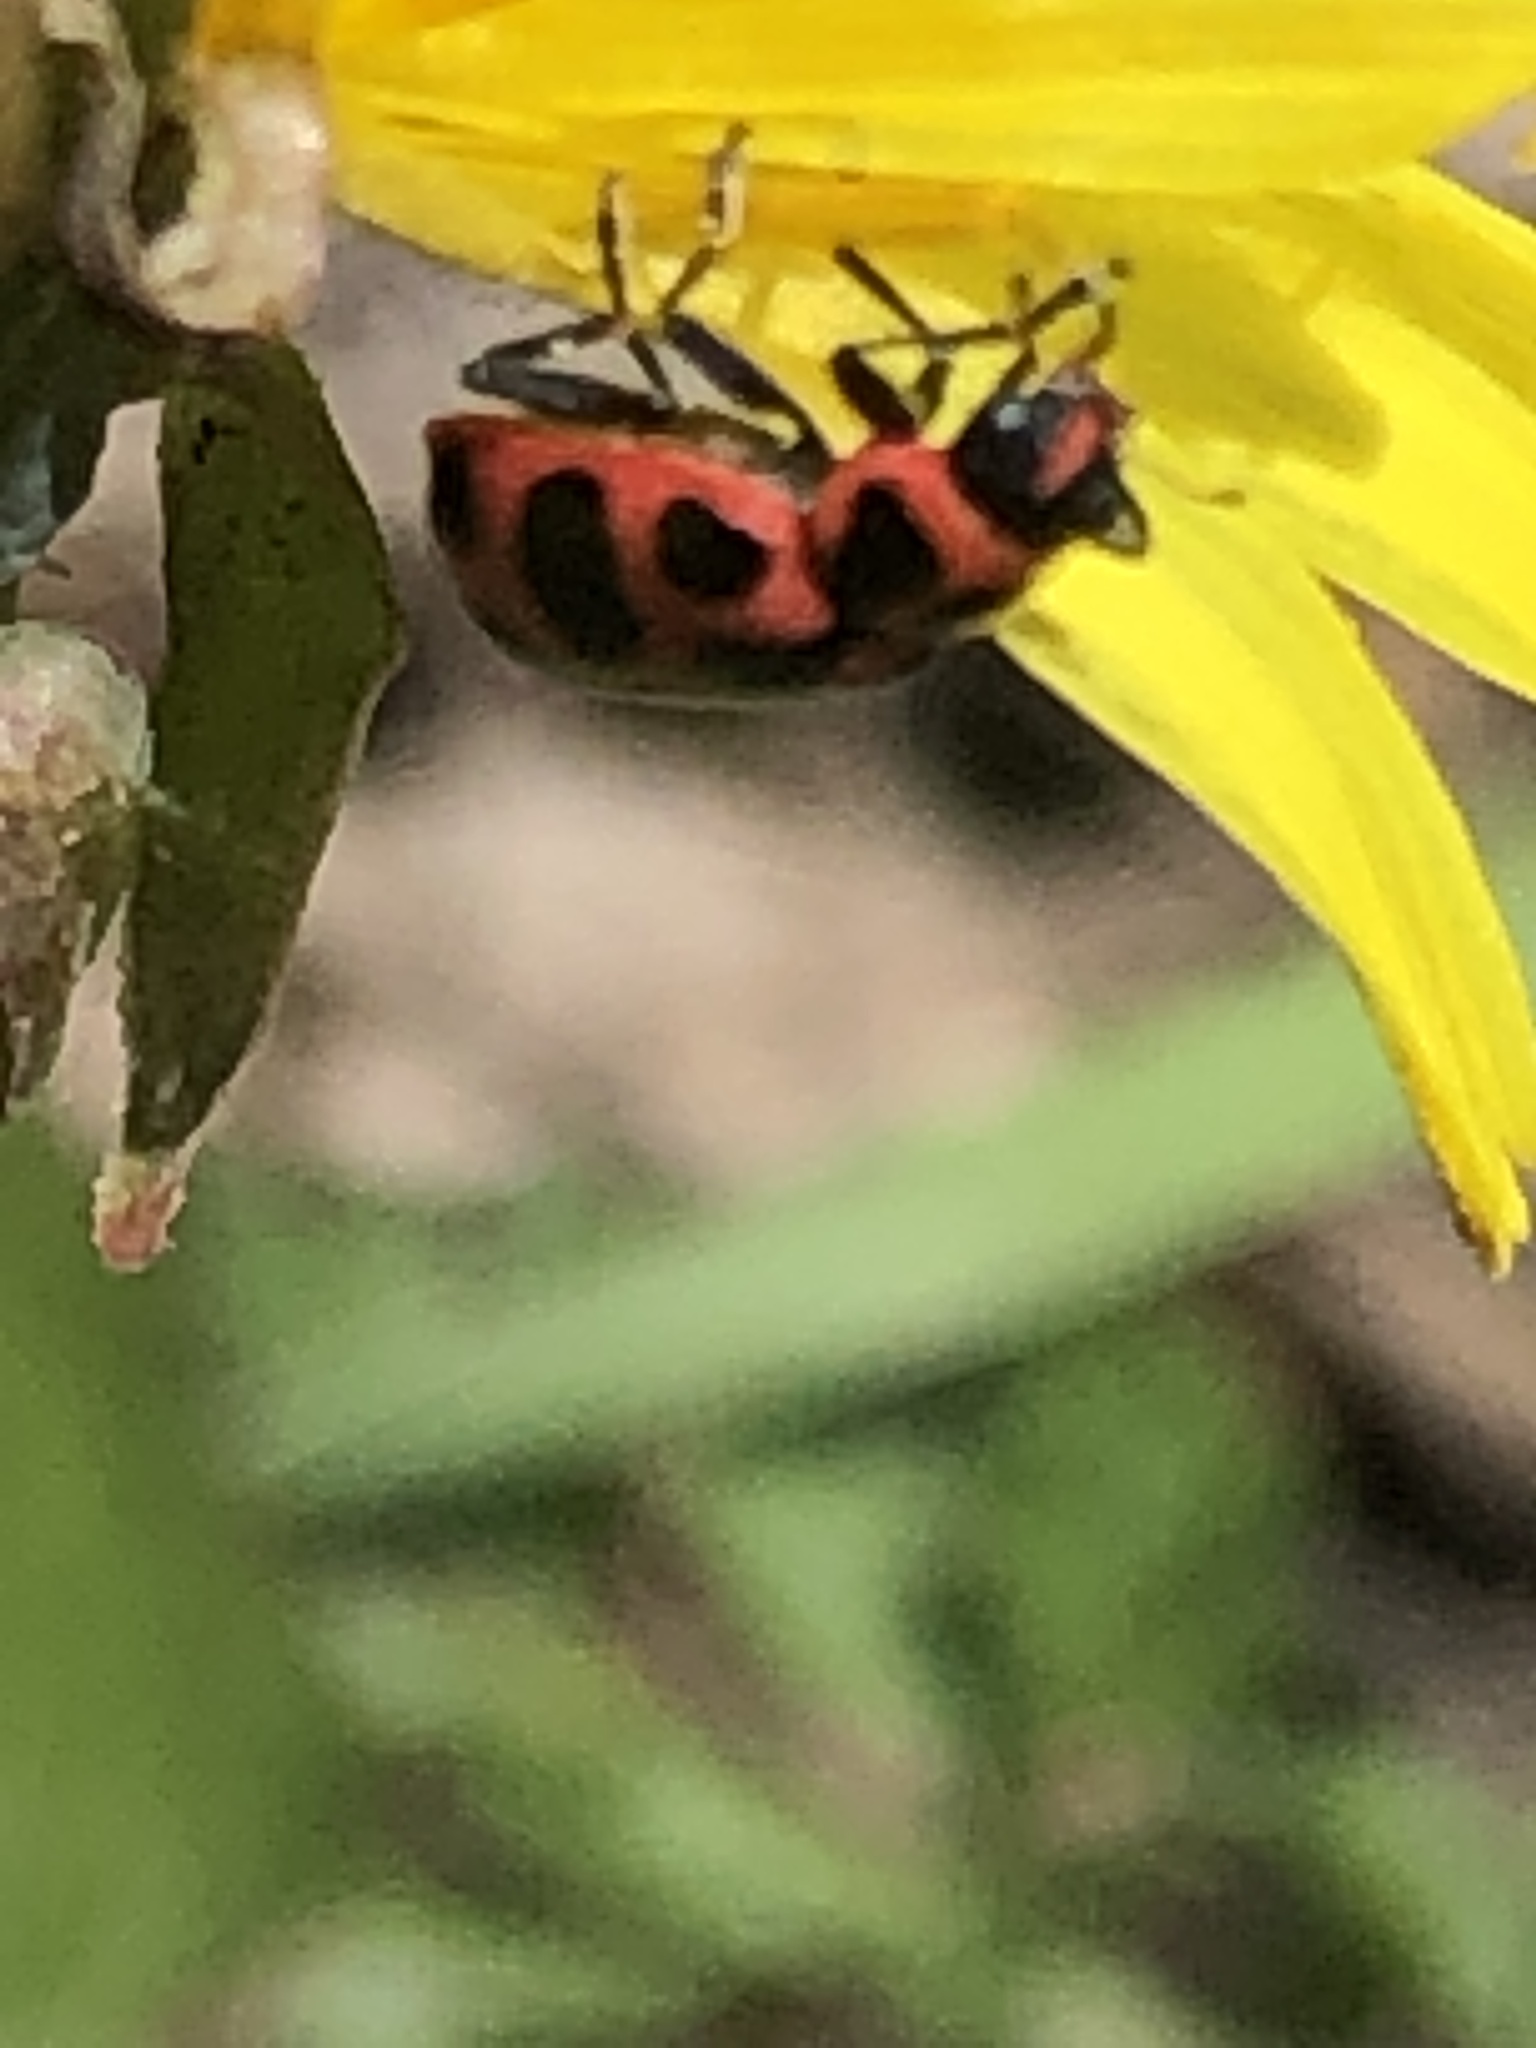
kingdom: Animalia
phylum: Arthropoda
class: Insecta
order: Coleoptera
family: Coccinellidae
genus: Coleomegilla
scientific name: Coleomegilla maculata
